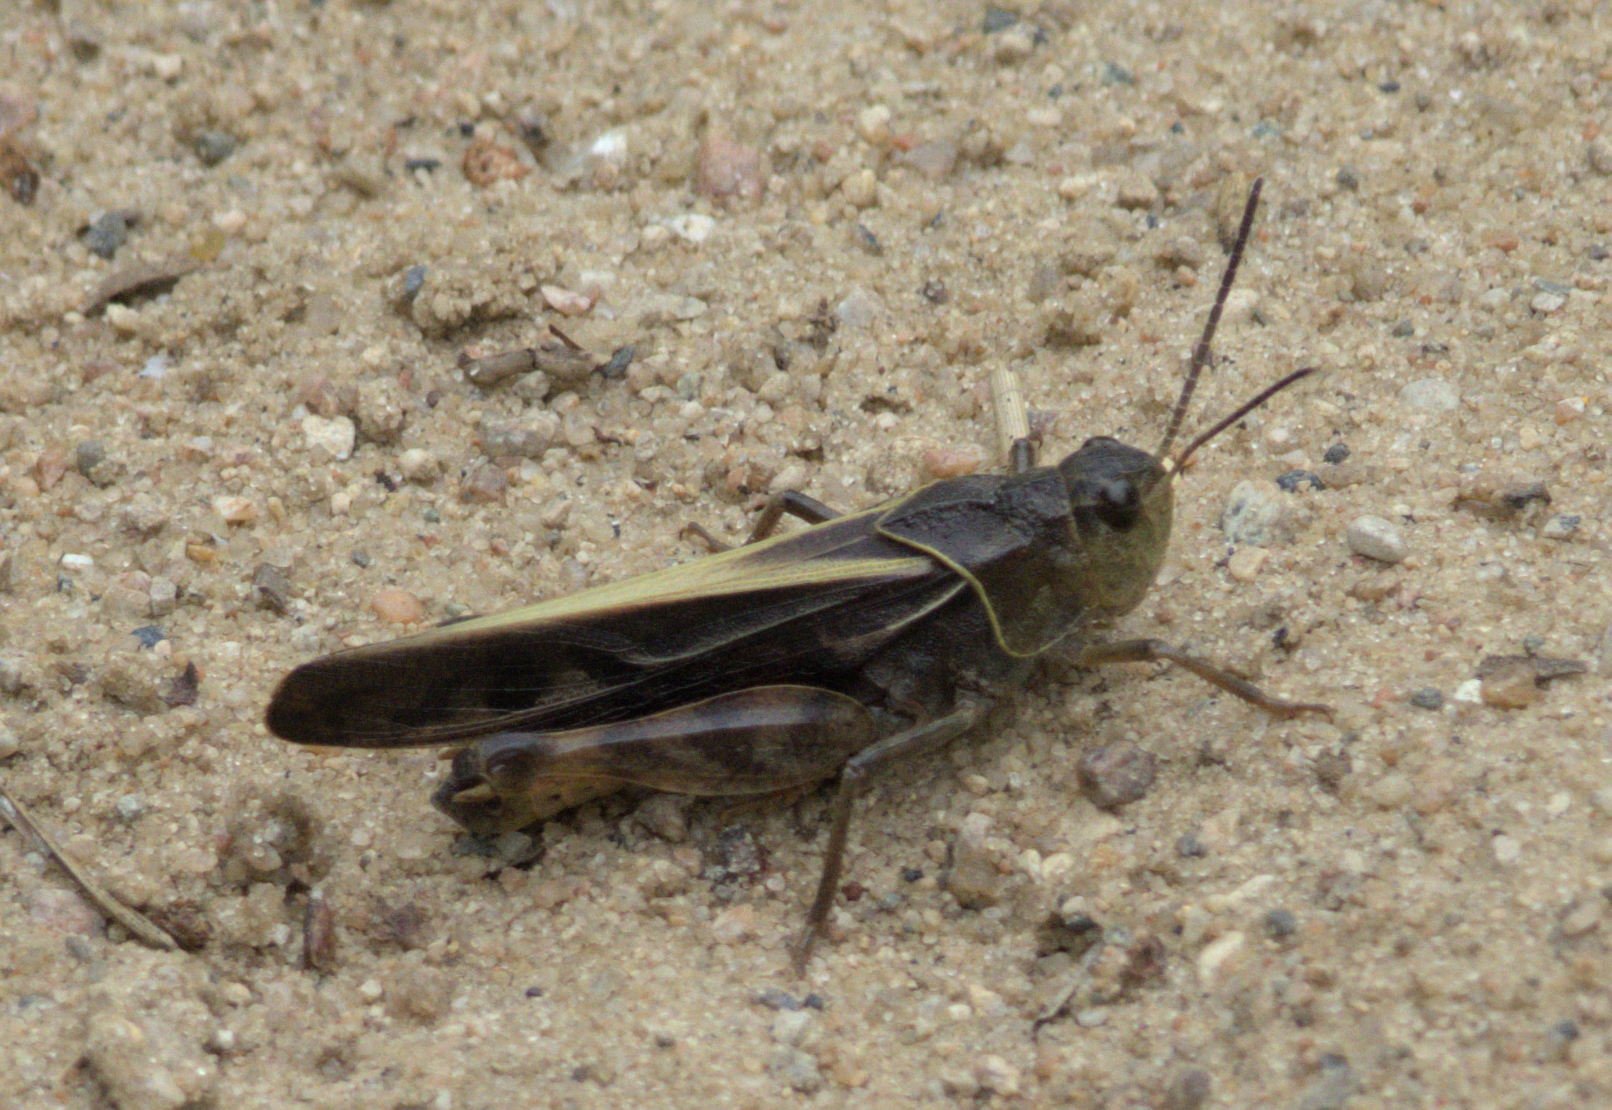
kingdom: Animalia
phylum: Arthropoda
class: Insecta
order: Orthoptera
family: Acrididae
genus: Pardalophora
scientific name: Pardalophora apiculata
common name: Coral-winged locust
